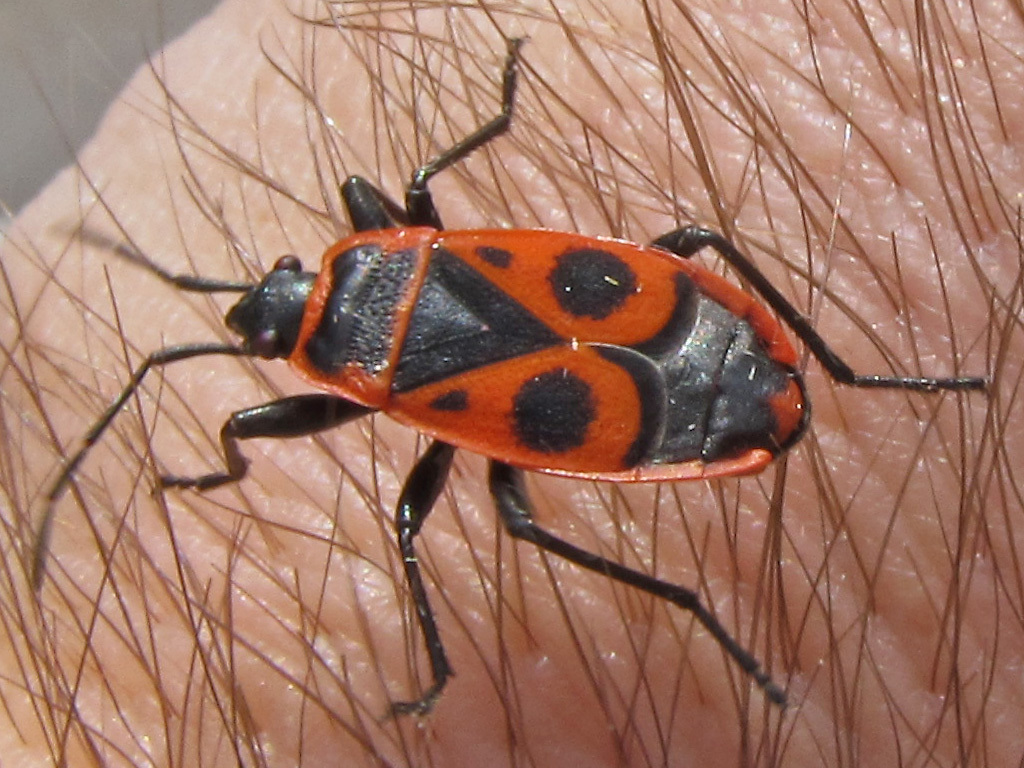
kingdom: Animalia
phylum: Arthropoda
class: Insecta
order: Hemiptera
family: Pyrrhocoridae
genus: Pyrrhocoris
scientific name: Pyrrhocoris apterus
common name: Firebug
